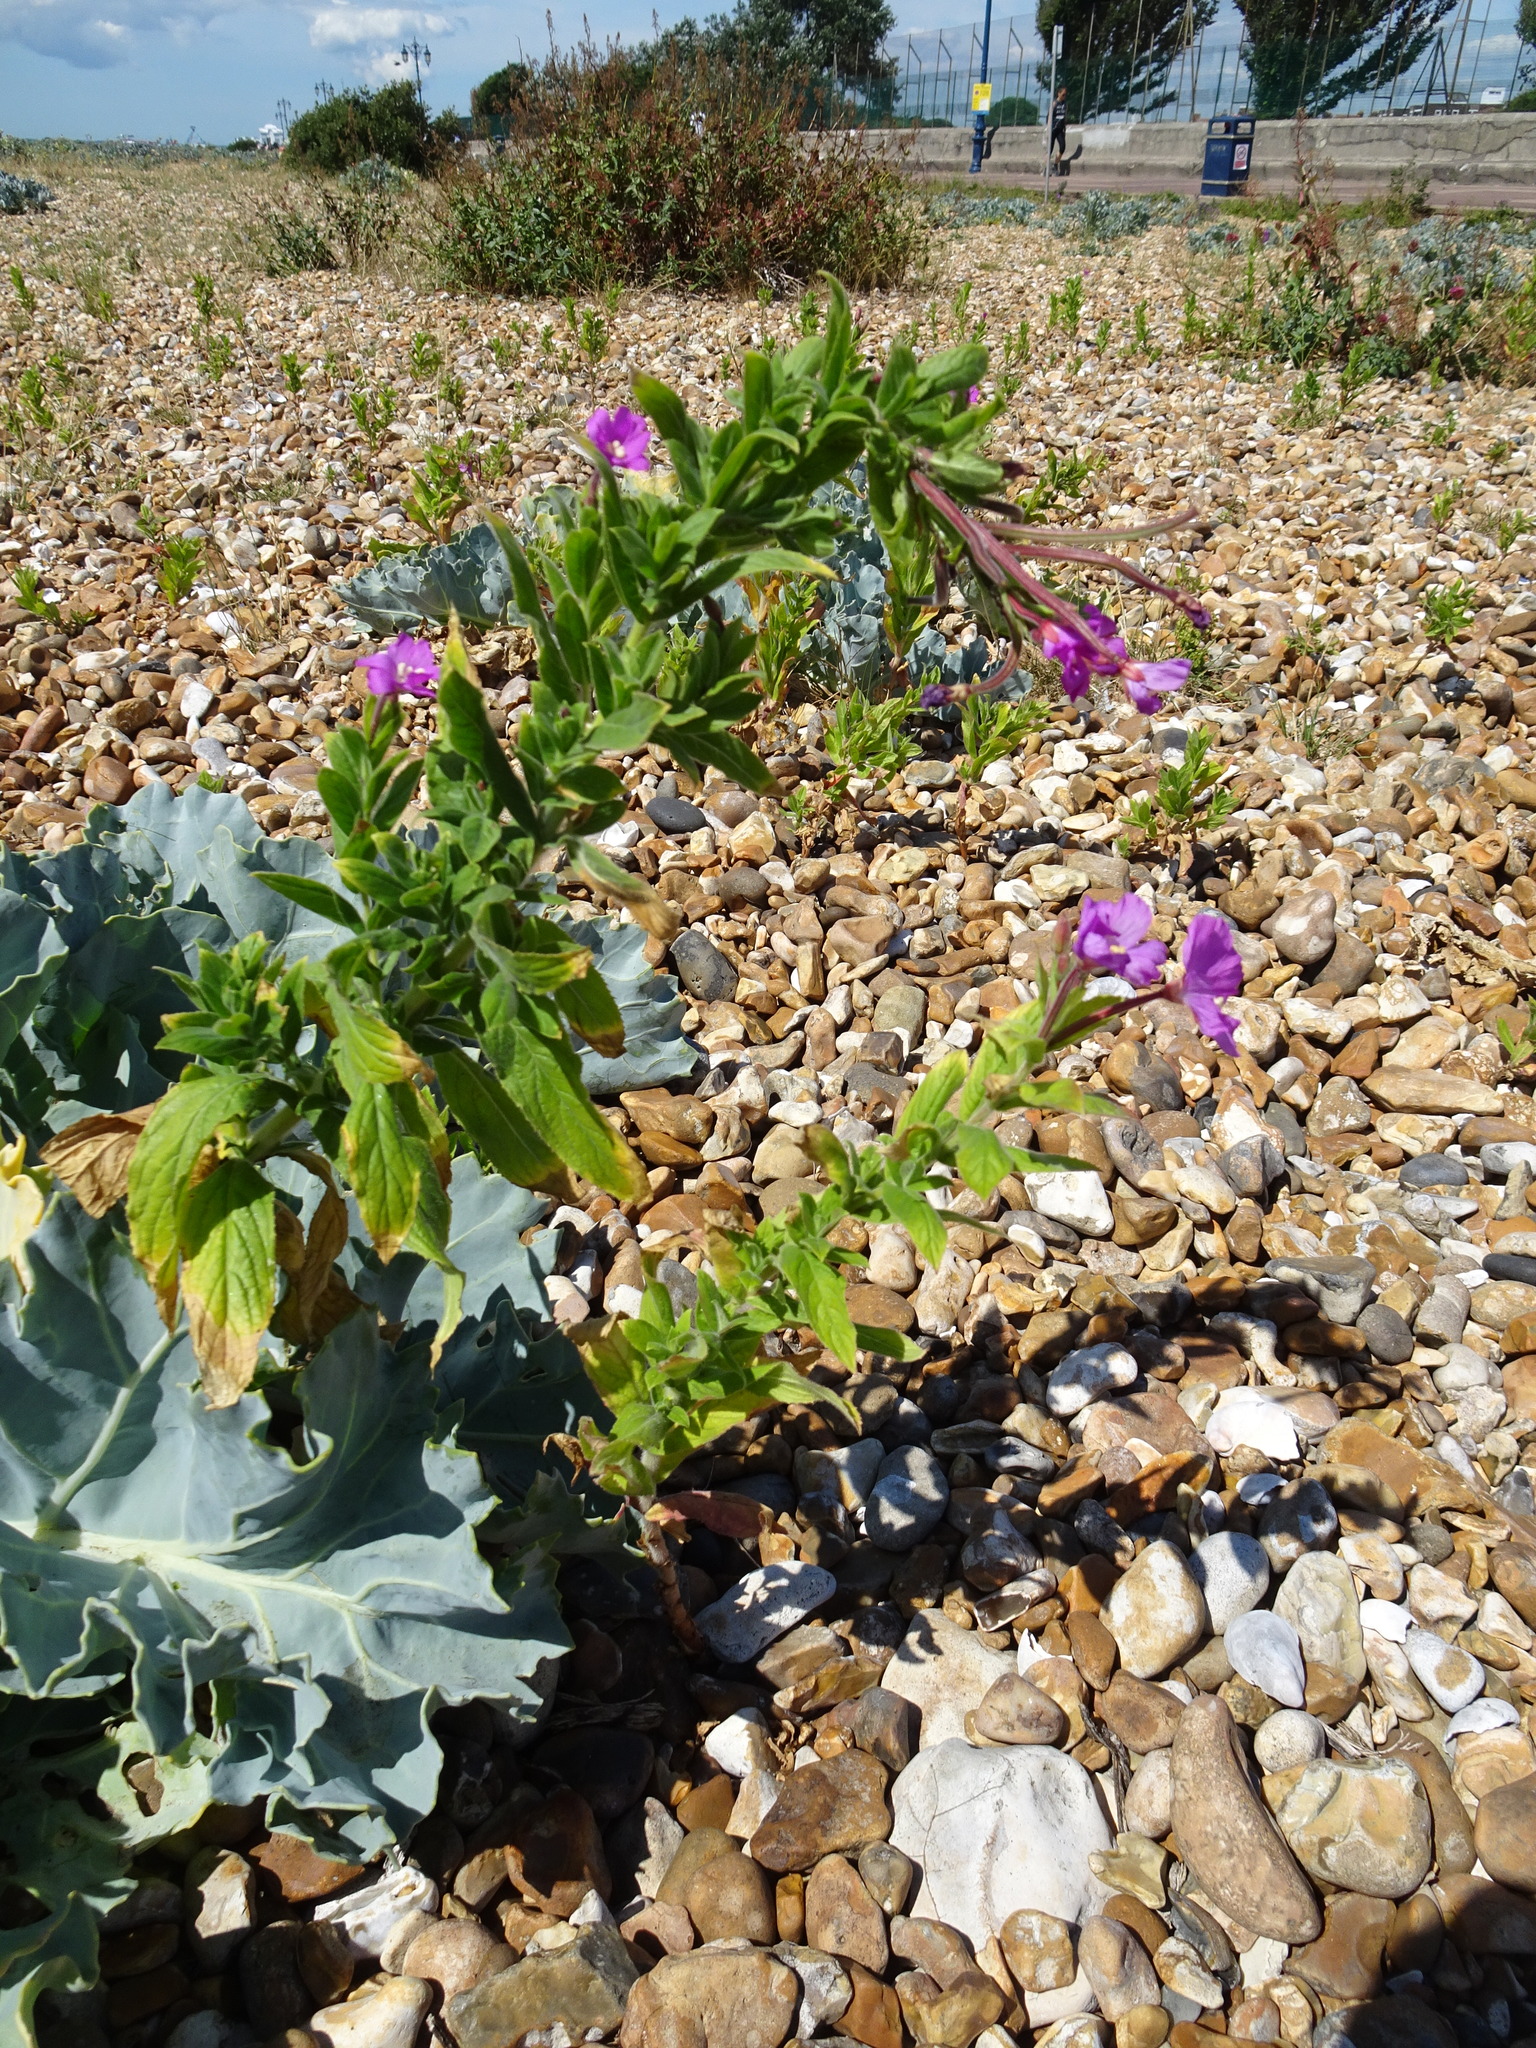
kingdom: Plantae
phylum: Tracheophyta
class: Magnoliopsida
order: Myrtales
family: Onagraceae
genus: Epilobium
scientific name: Epilobium hirsutum
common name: Great willowherb
